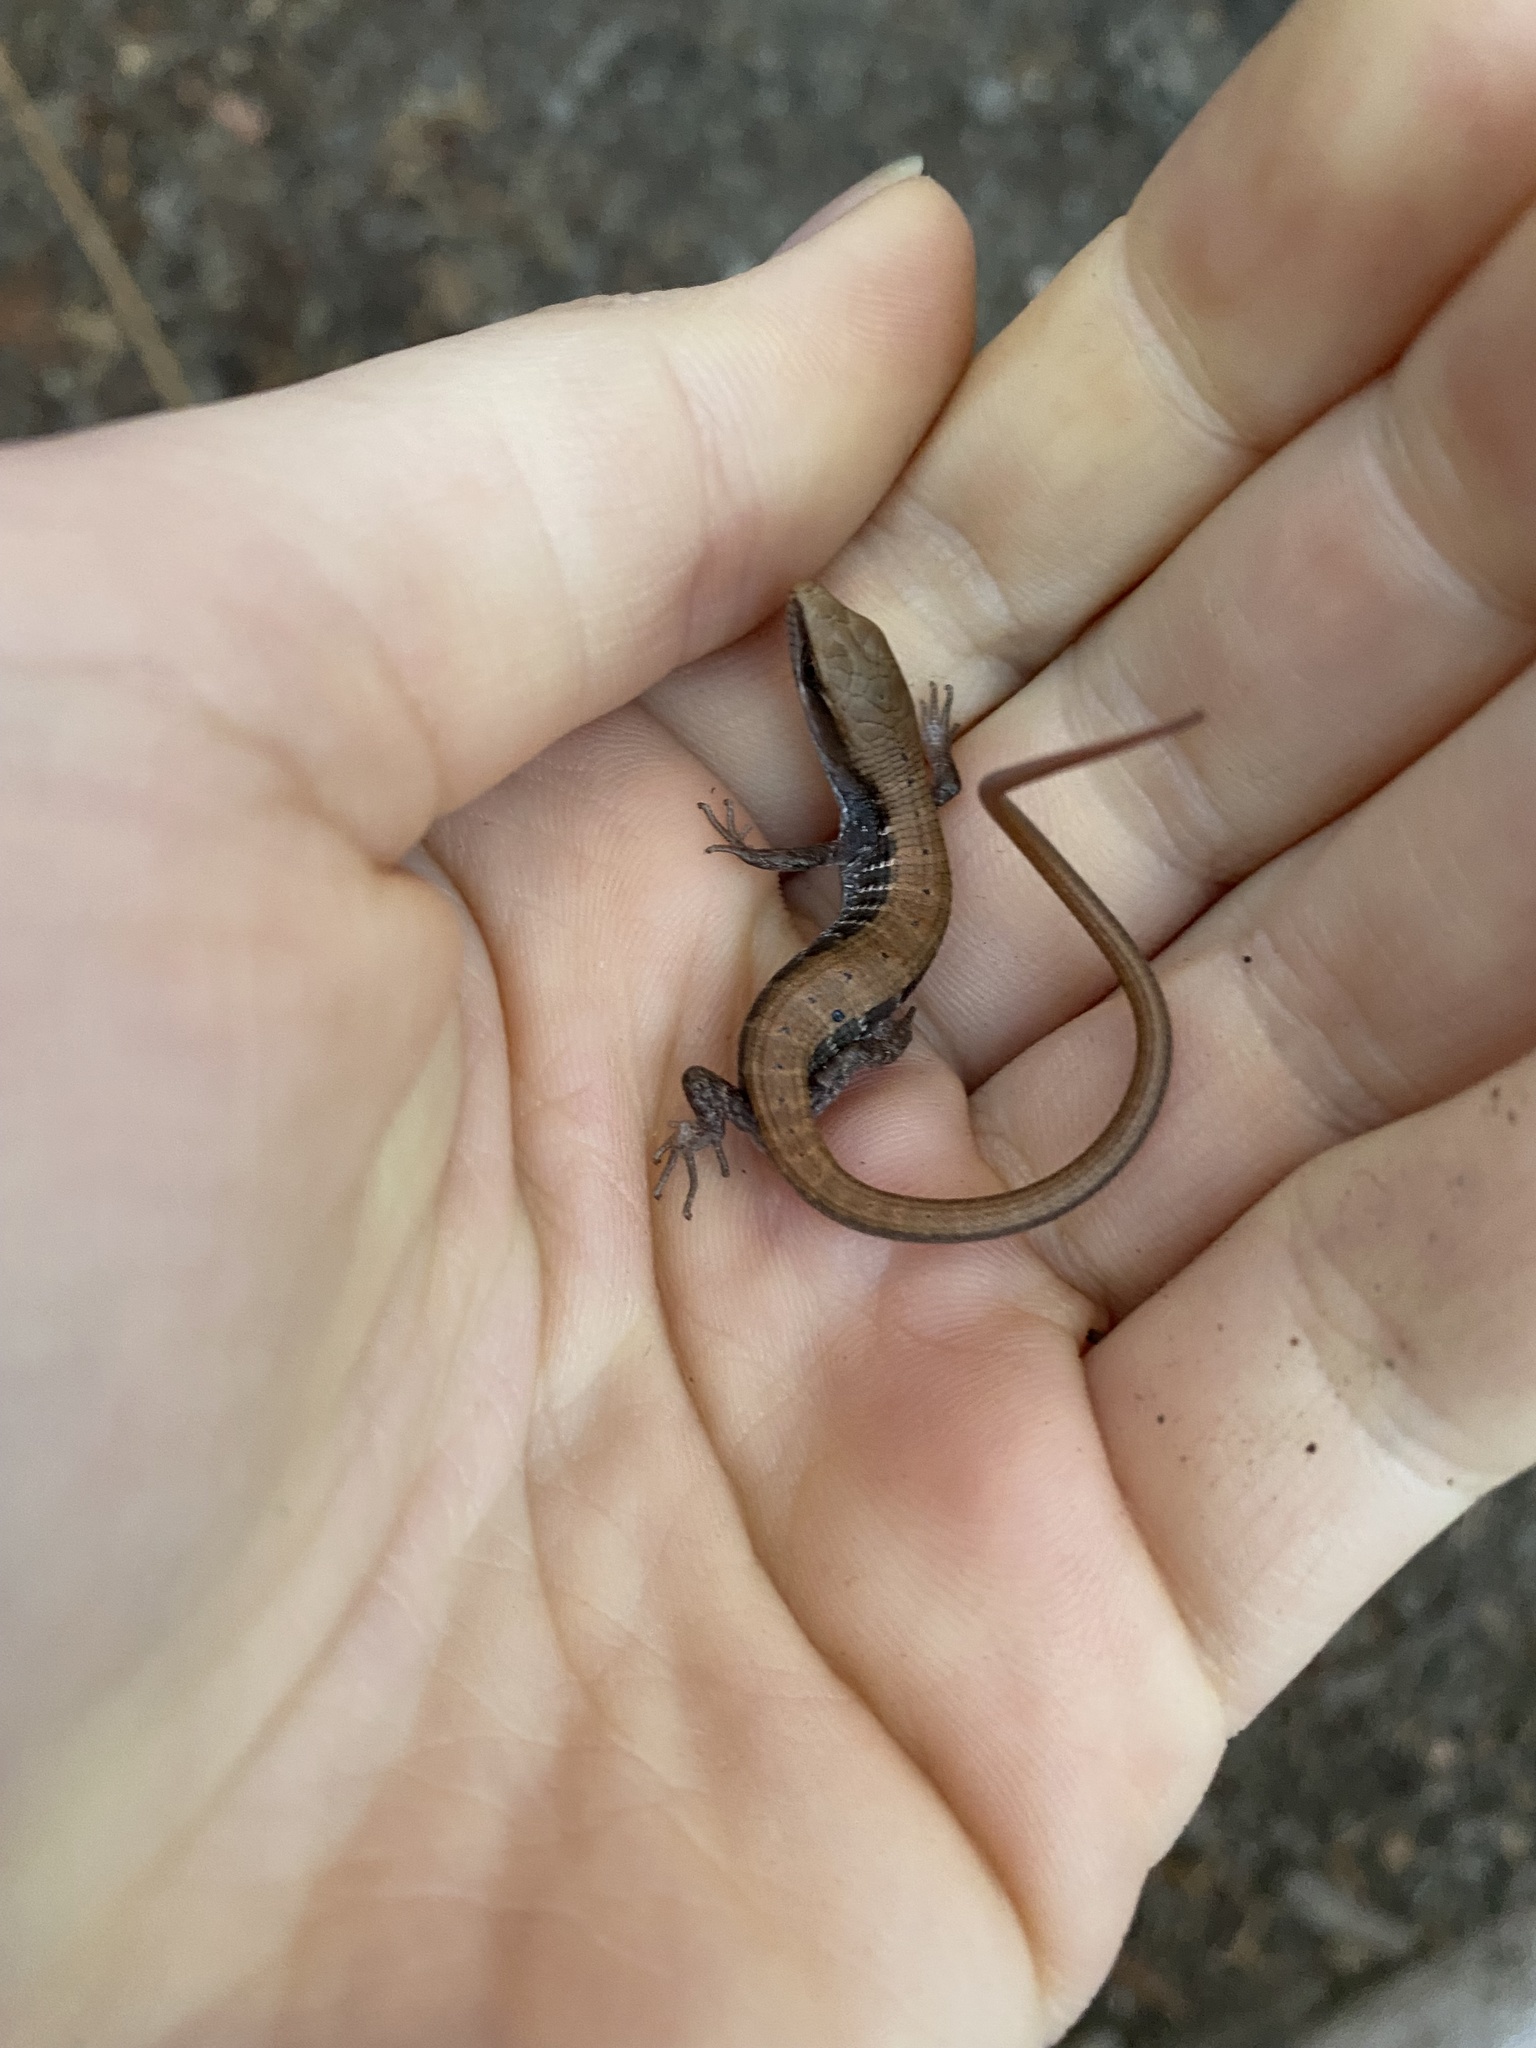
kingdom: Animalia
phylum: Chordata
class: Squamata
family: Anguidae
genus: Elgaria
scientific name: Elgaria multicarinata
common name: Southern alligator lizard
